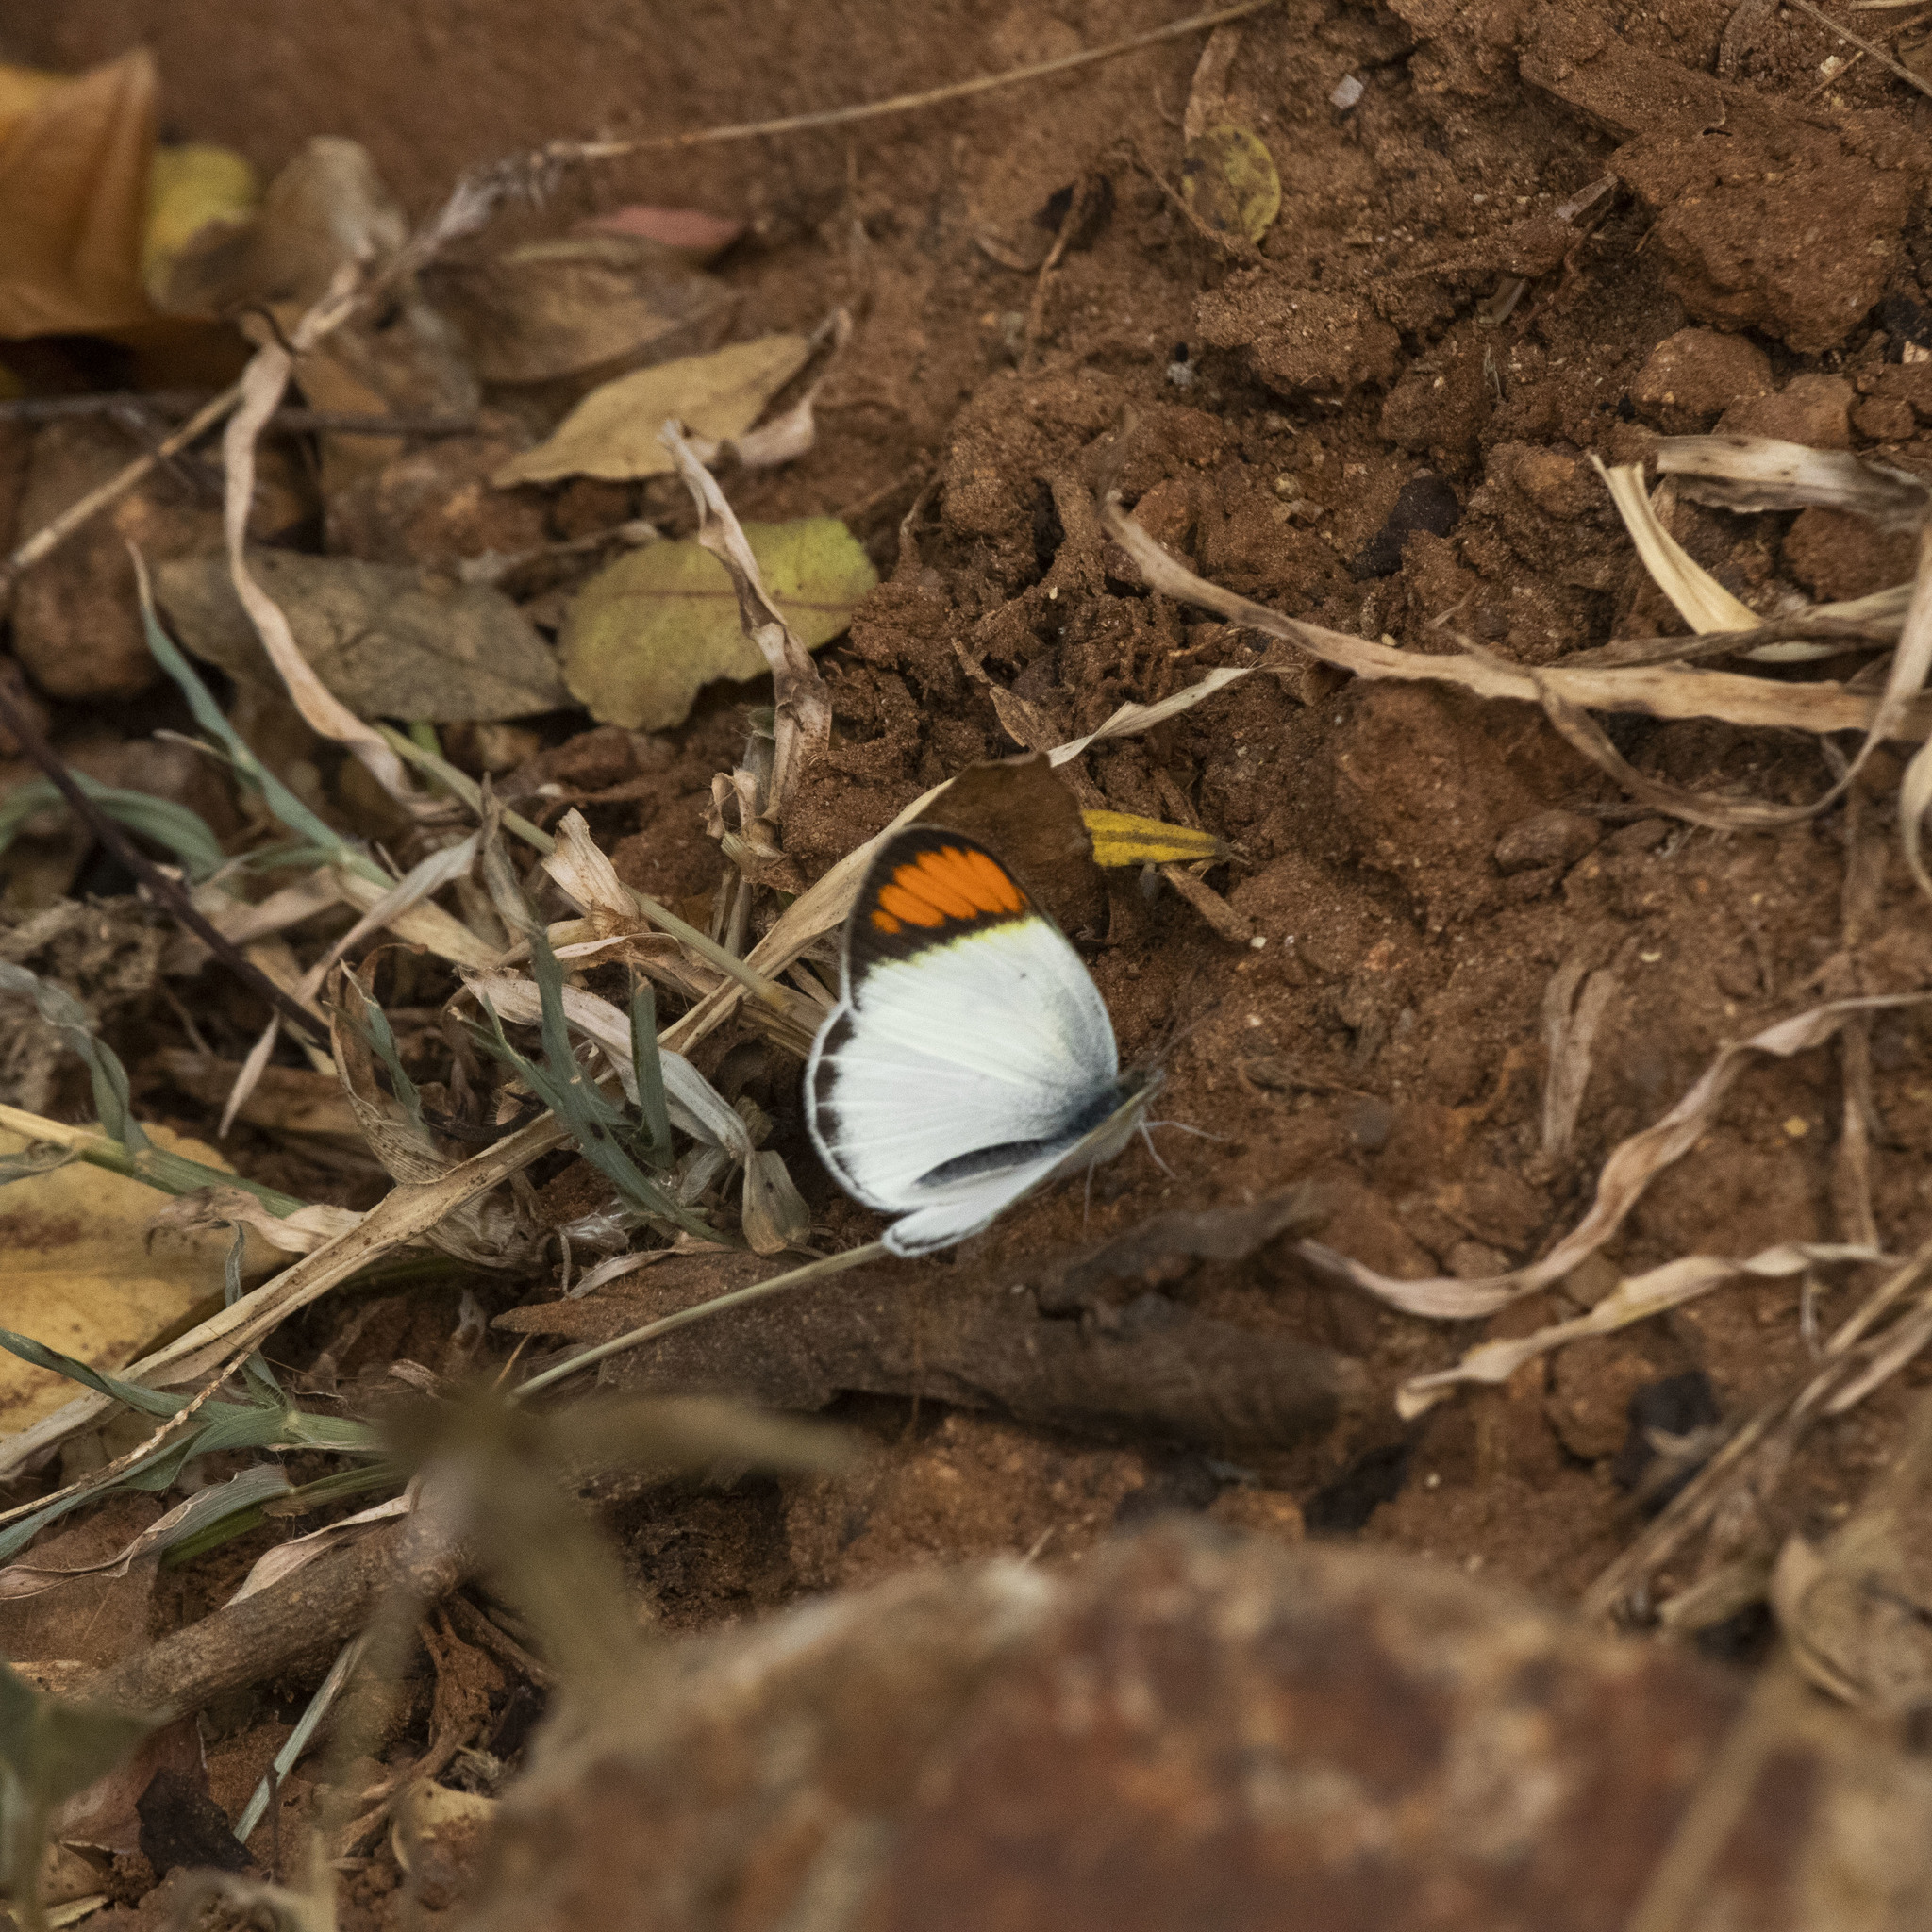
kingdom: Animalia
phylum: Arthropoda
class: Insecta
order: Lepidoptera
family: Pieridae
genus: Ixias
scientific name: Ixias marianne
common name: White orange tip
